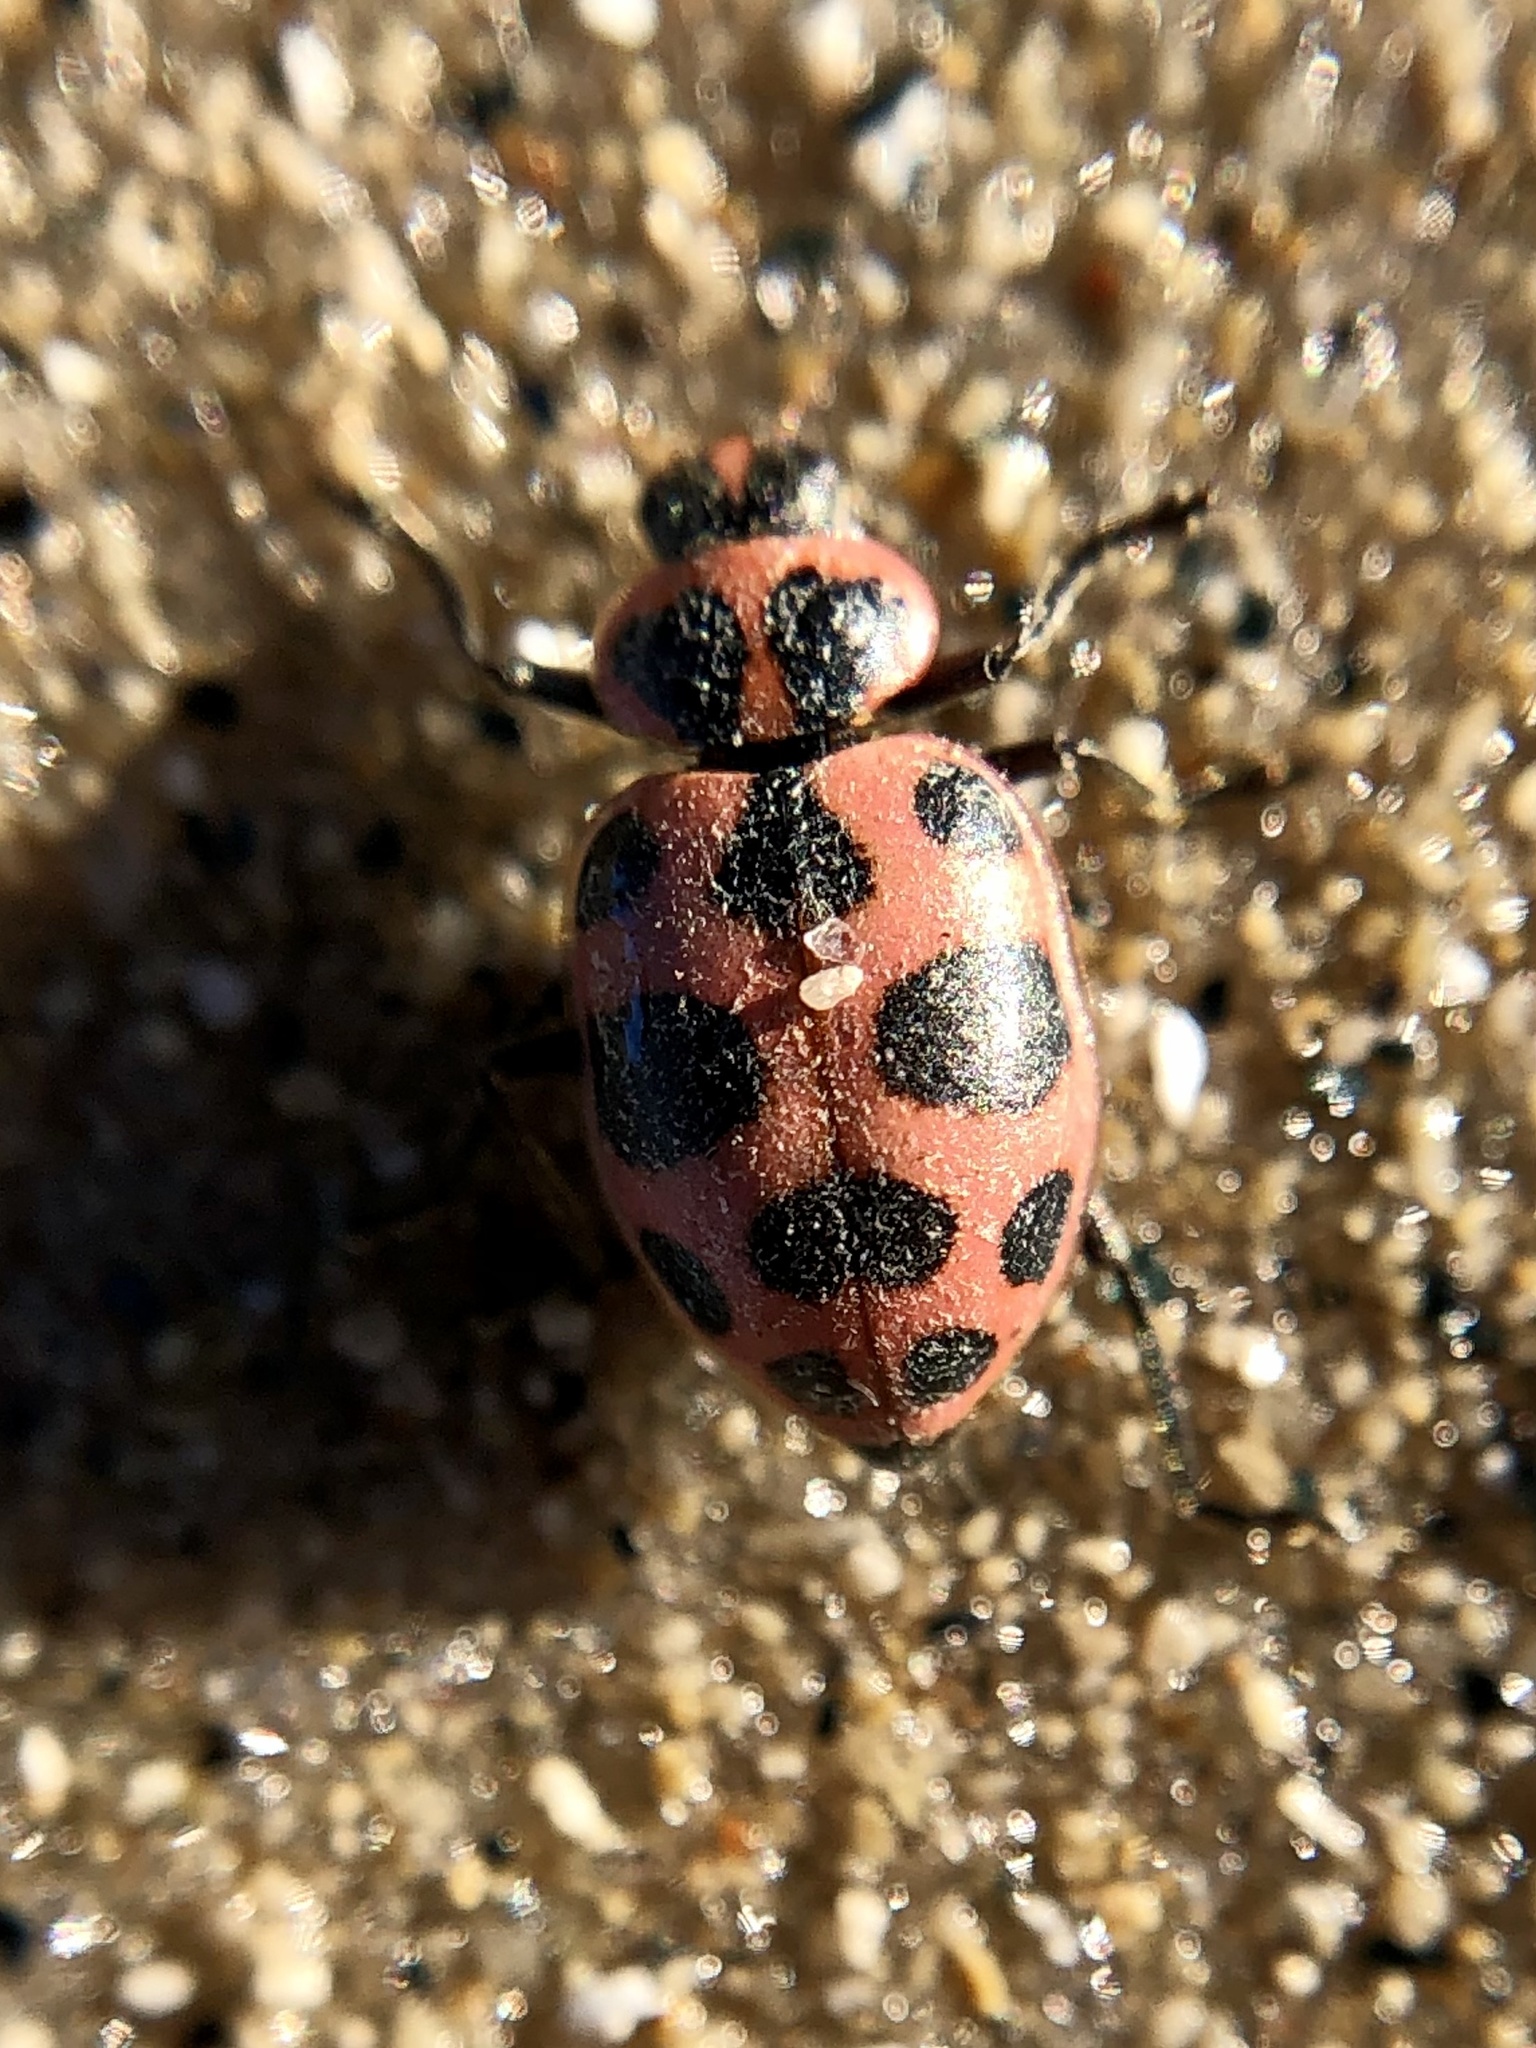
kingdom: Animalia
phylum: Arthropoda
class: Insecta
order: Coleoptera
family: Coccinellidae
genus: Coleomegilla
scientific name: Coleomegilla maculata
